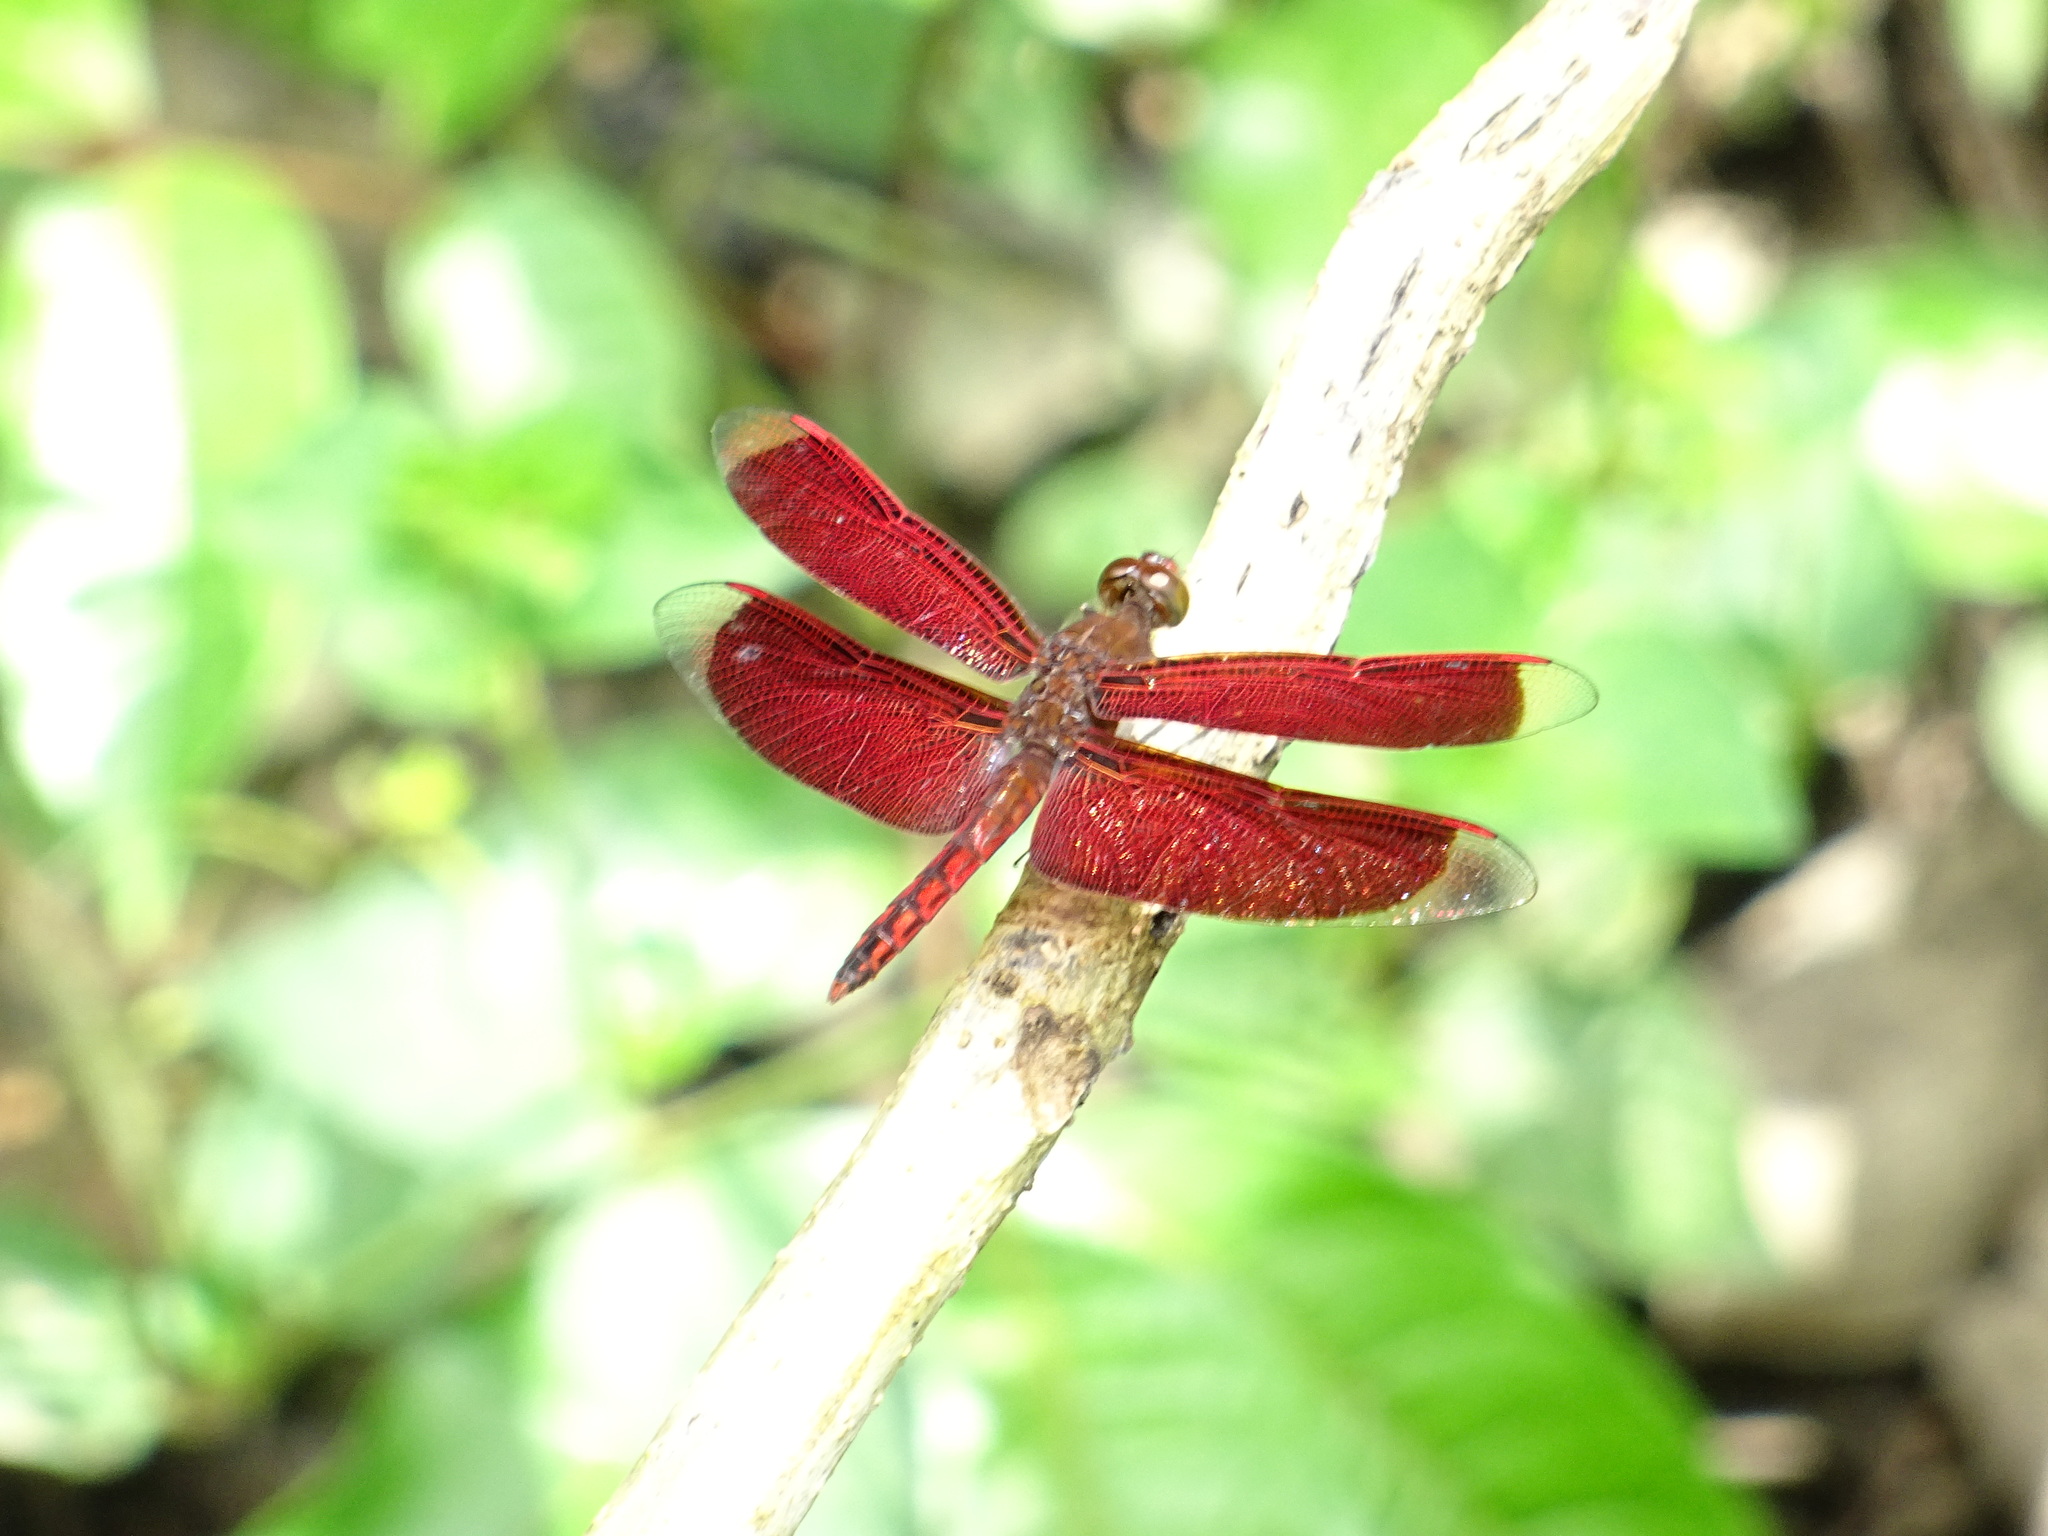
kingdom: Animalia
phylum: Arthropoda
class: Insecta
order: Odonata
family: Libellulidae
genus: Neurothemis
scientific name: Neurothemis ramburii
